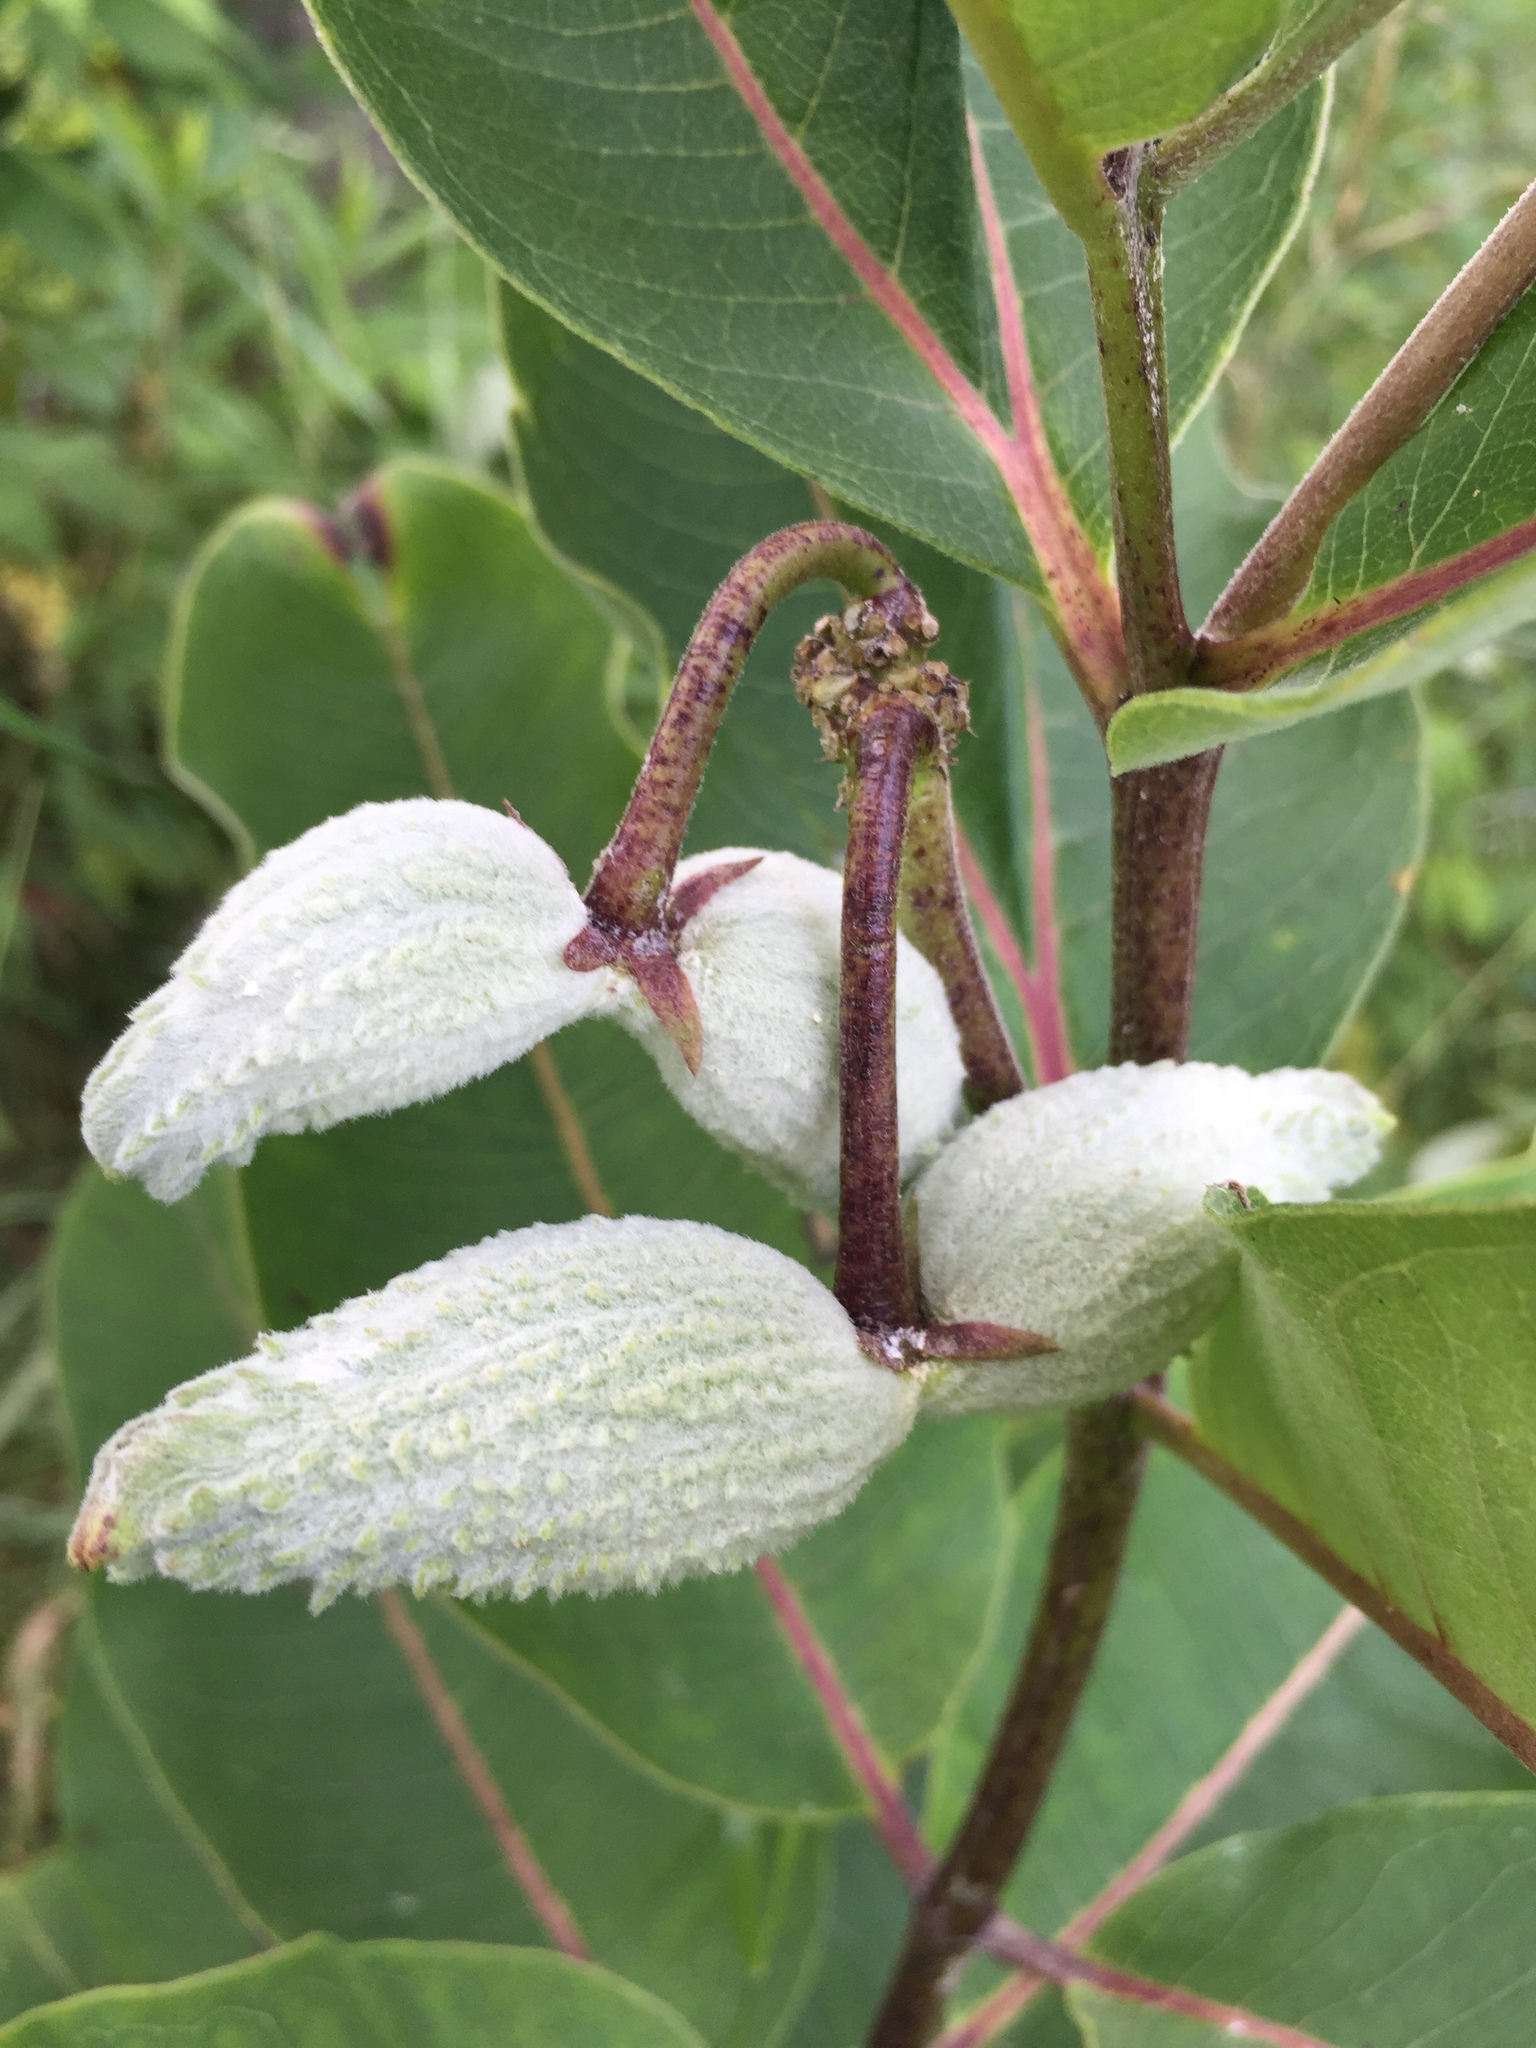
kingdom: Plantae
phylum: Tracheophyta
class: Magnoliopsida
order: Gentianales
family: Apocynaceae
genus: Asclepias
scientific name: Asclepias syriaca
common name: Common milkweed
